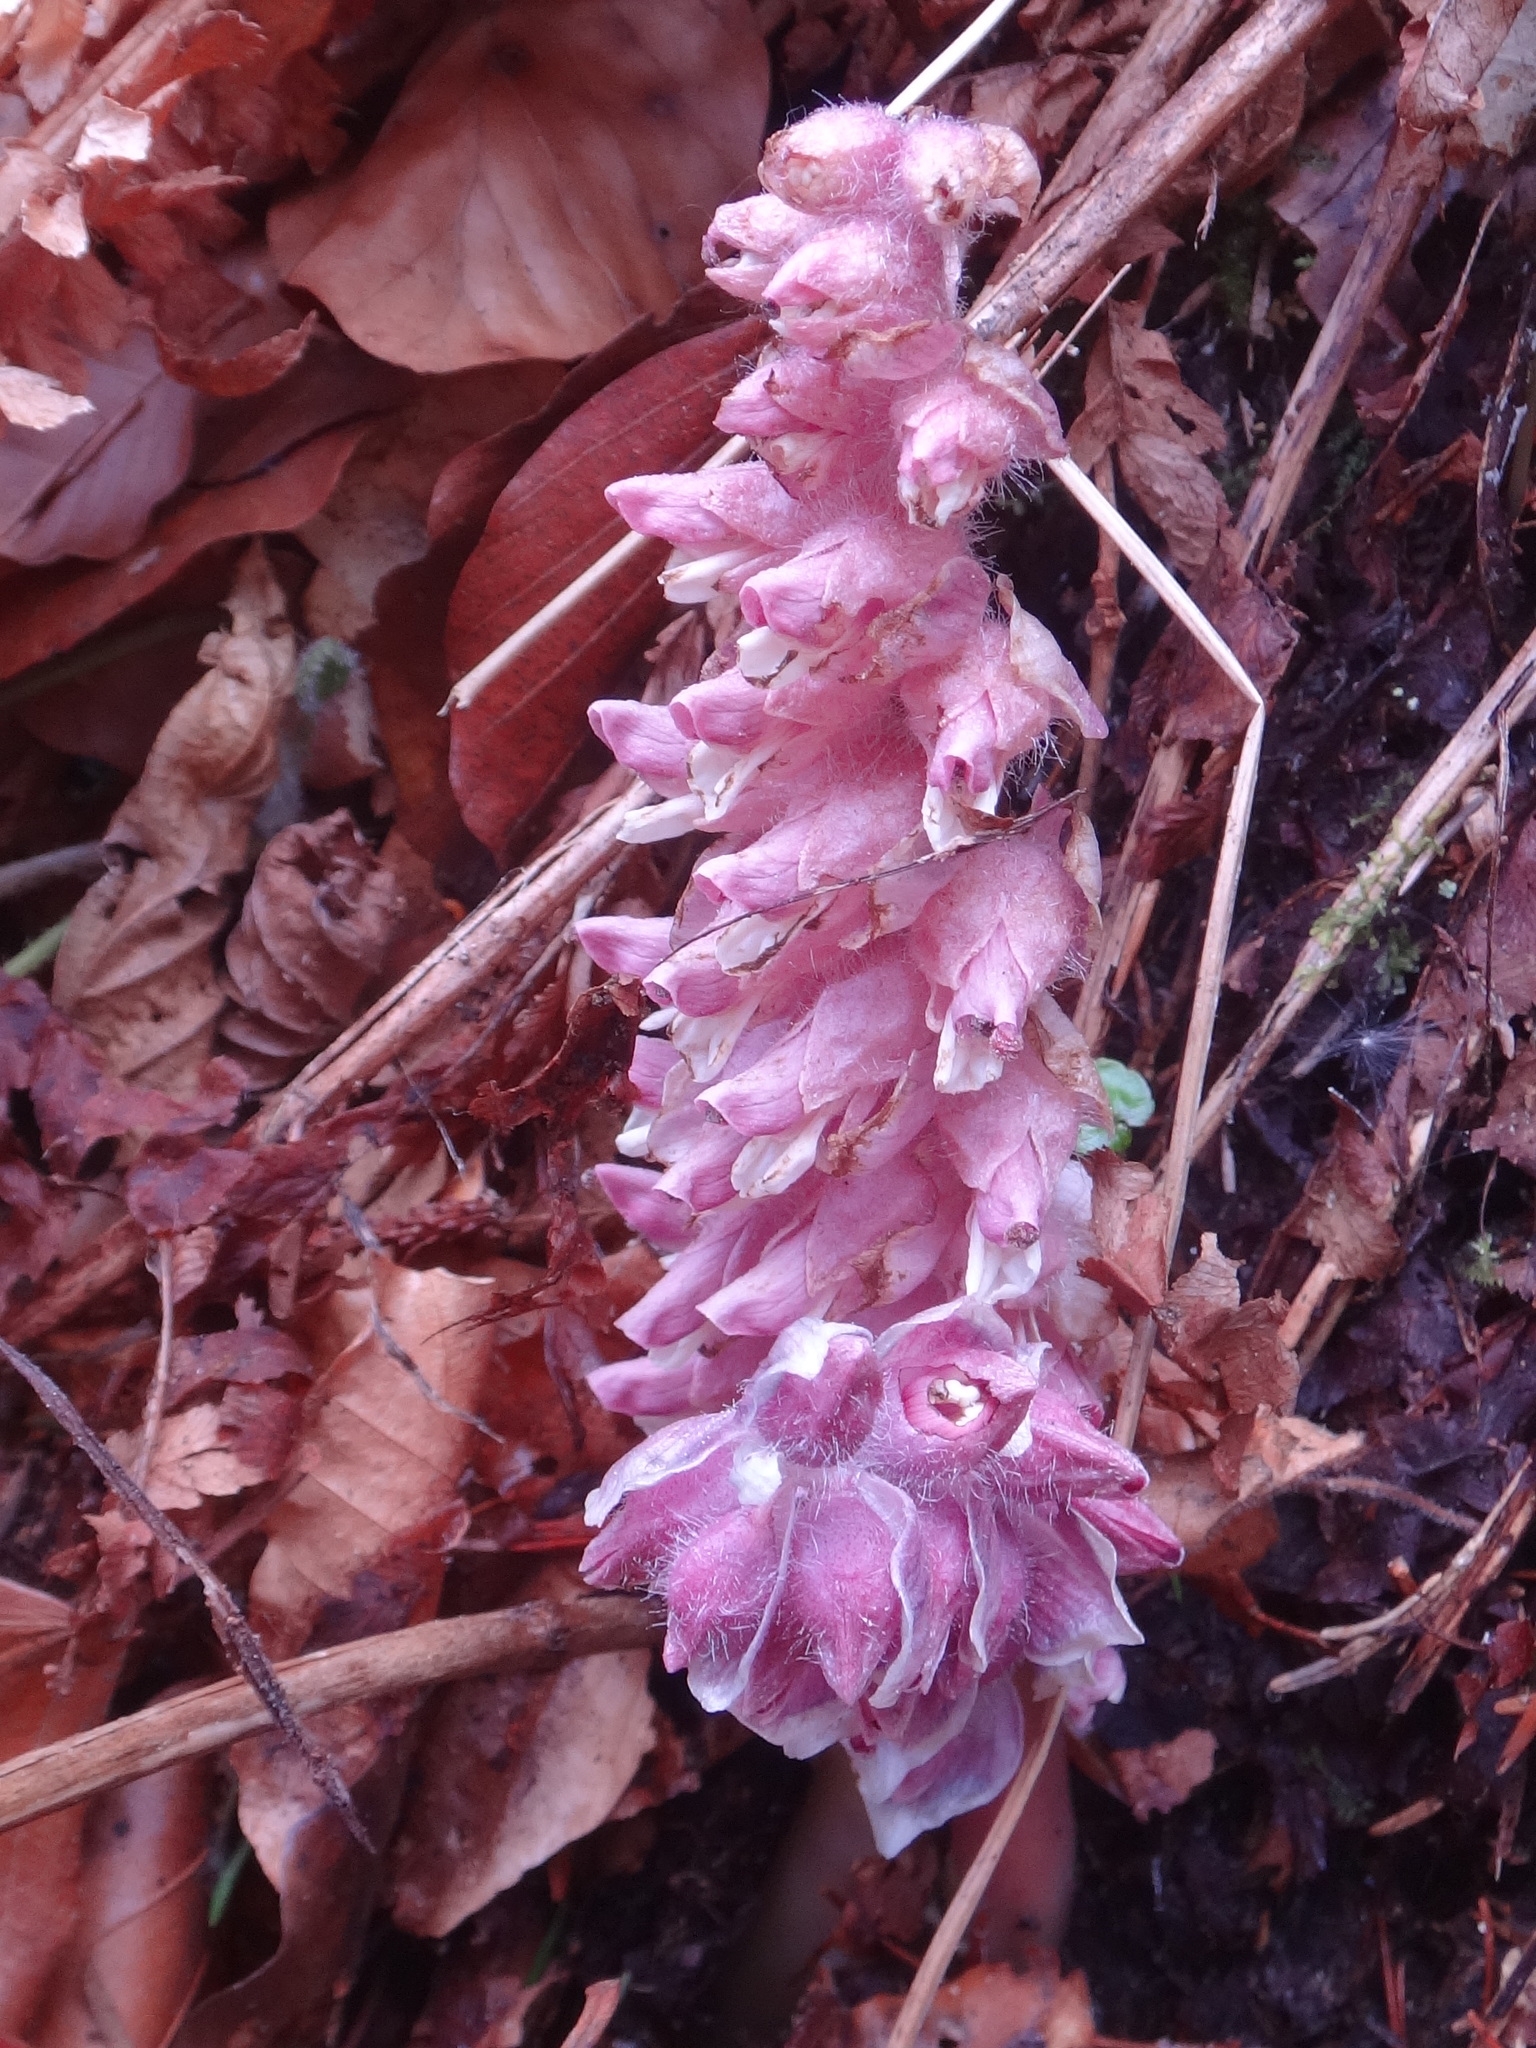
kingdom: Plantae
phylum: Tracheophyta
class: Magnoliopsida
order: Lamiales
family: Orobanchaceae
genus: Lathraea
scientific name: Lathraea squamaria
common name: Toothwort
